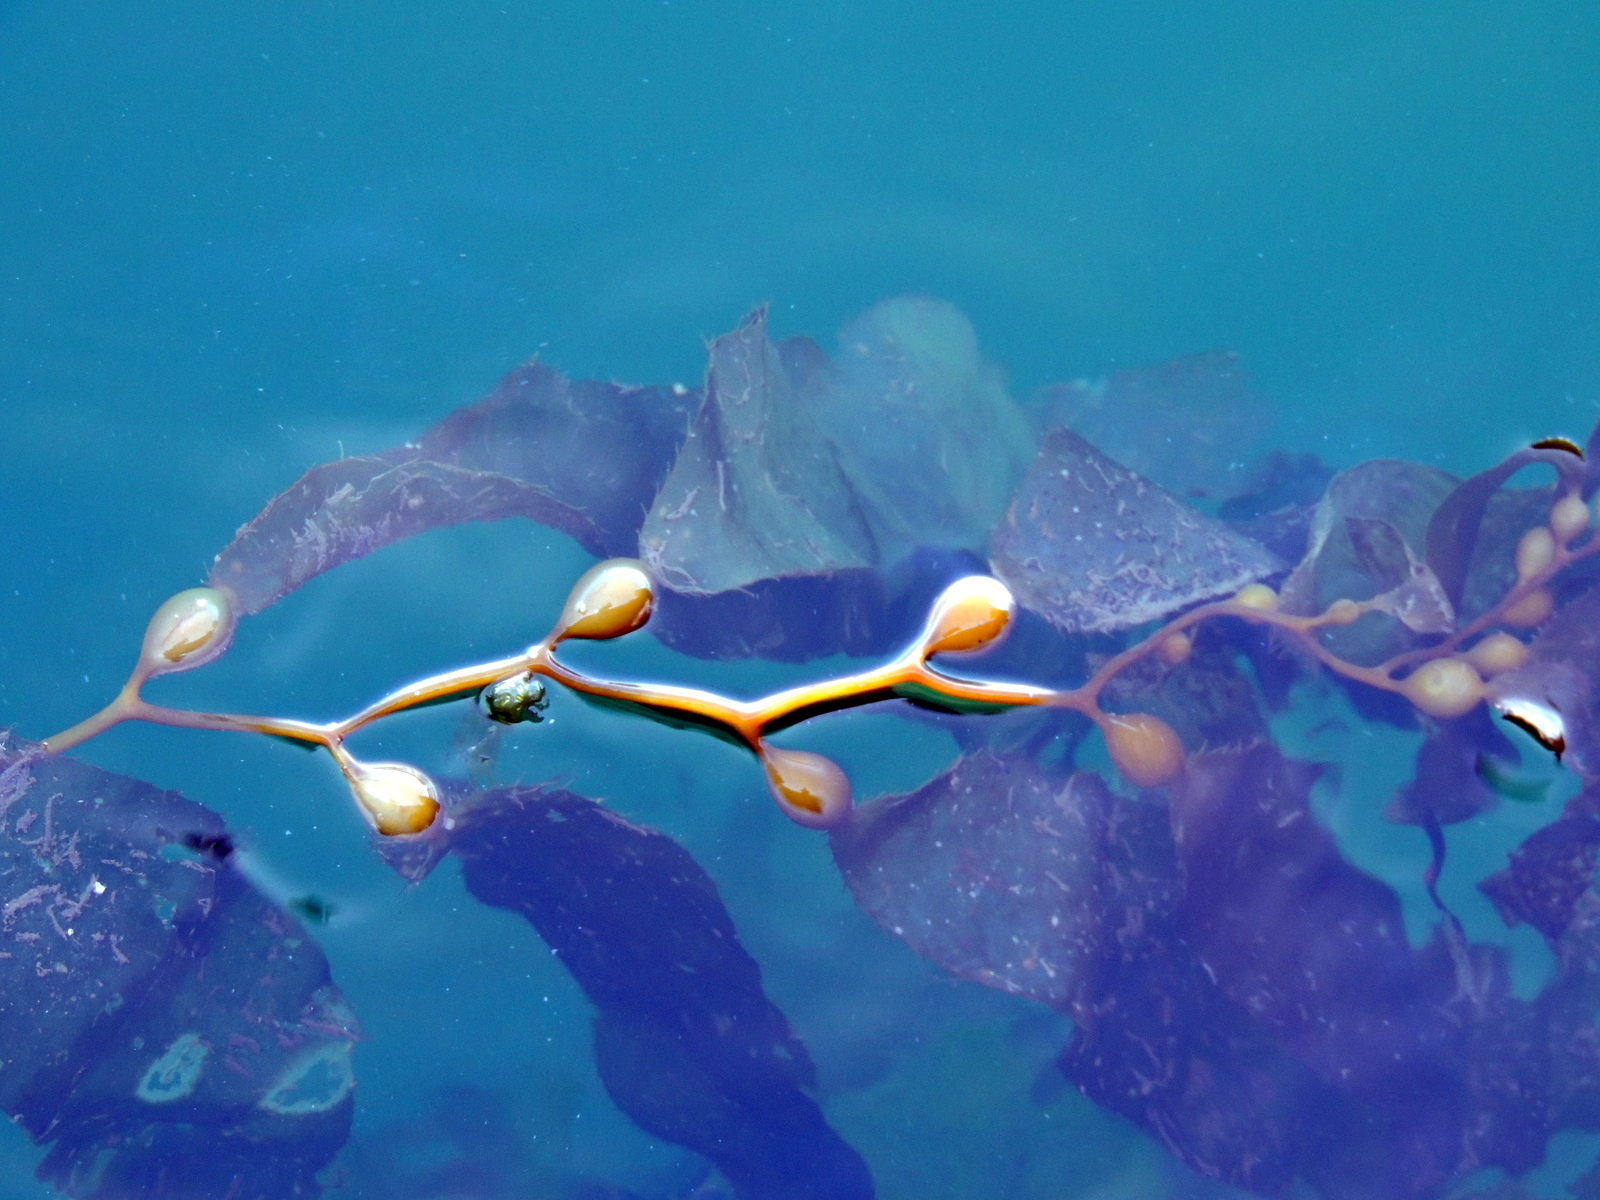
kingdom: Chromista
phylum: Ochrophyta
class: Phaeophyceae
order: Laminariales
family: Laminariaceae
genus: Macrocystis
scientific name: Macrocystis pyrifera
